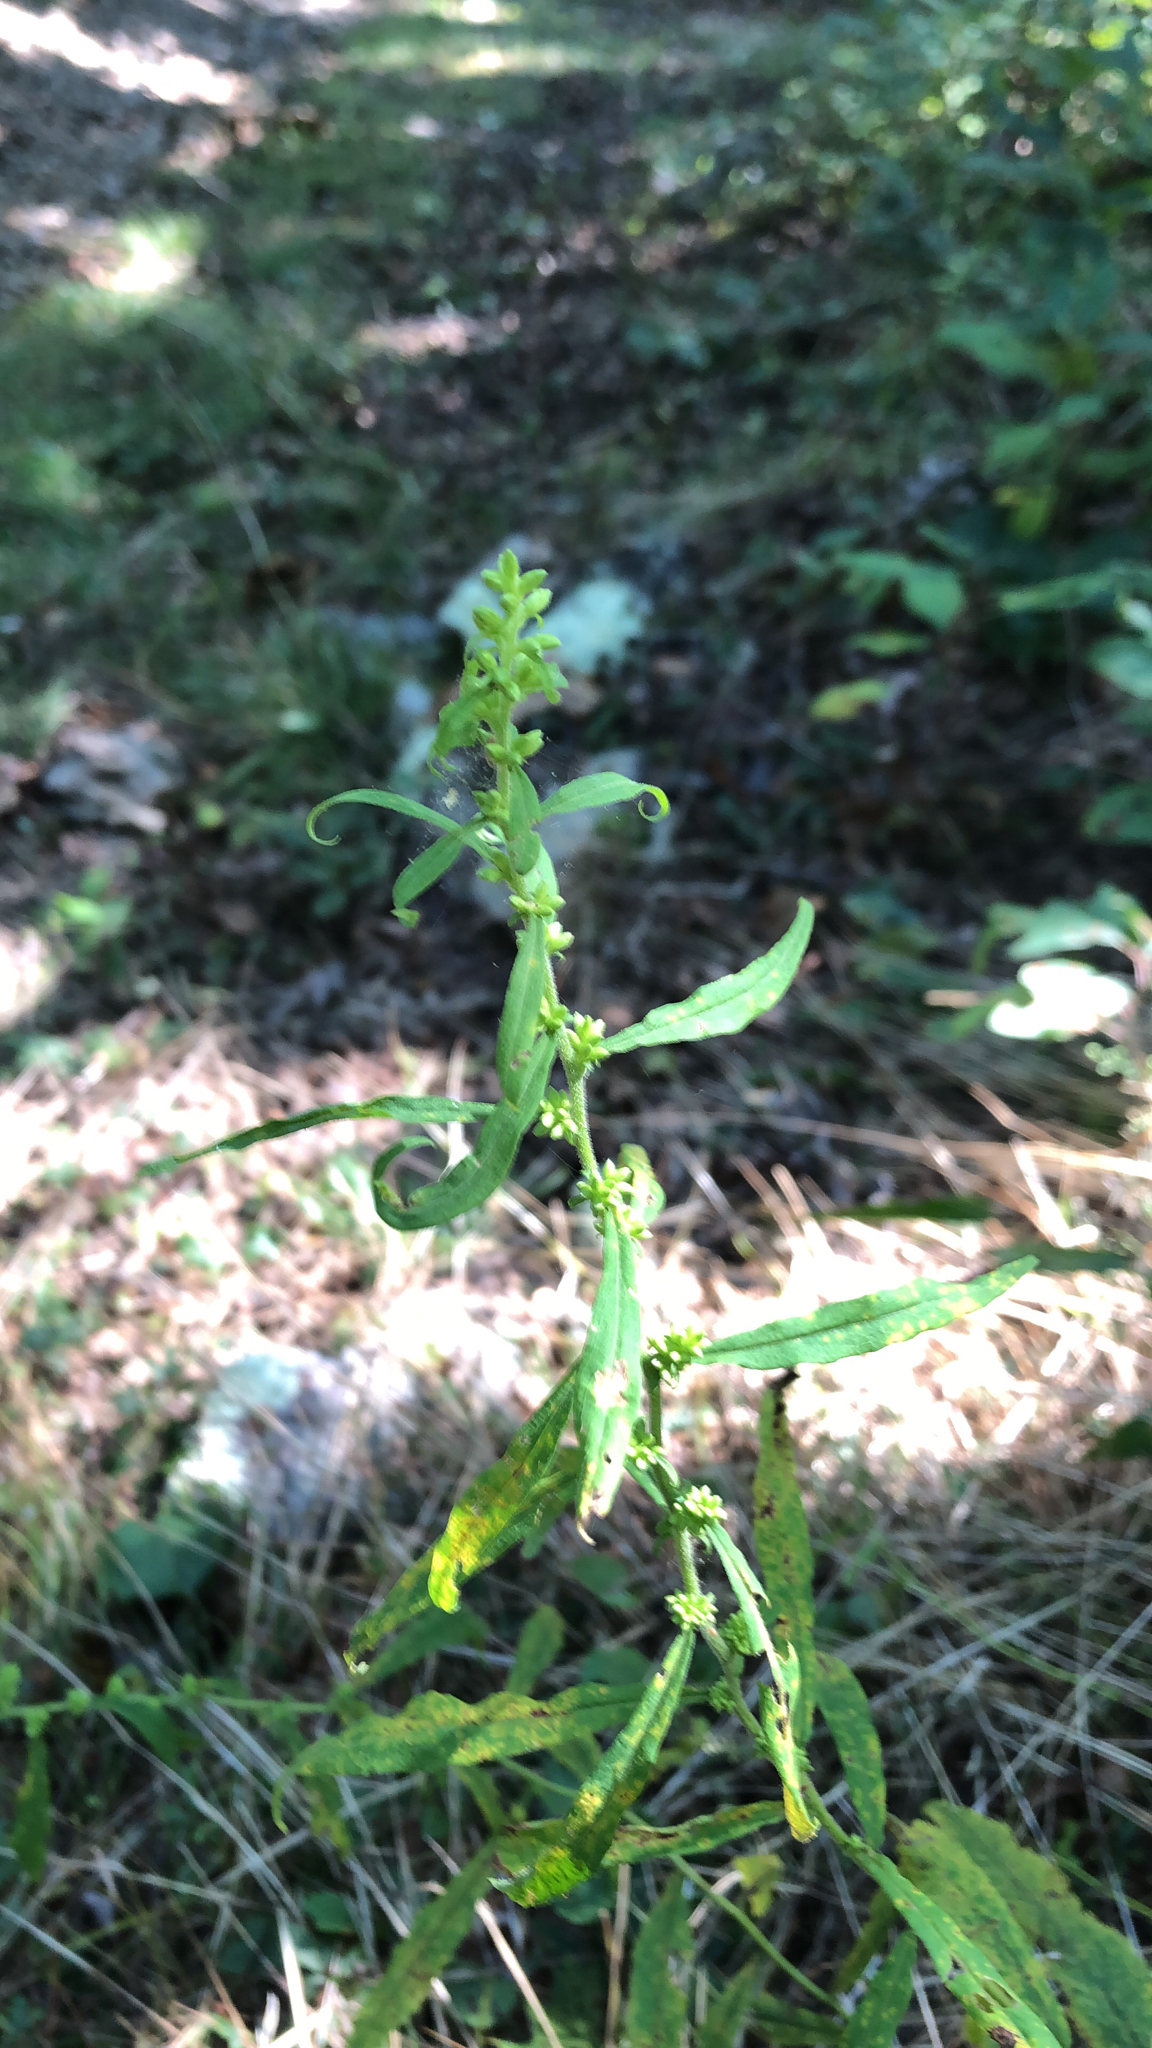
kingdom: Plantae
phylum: Tracheophyta
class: Magnoliopsida
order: Asterales
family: Asteraceae
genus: Solidago
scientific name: Solidago caesia
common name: Woodland goldenrod
